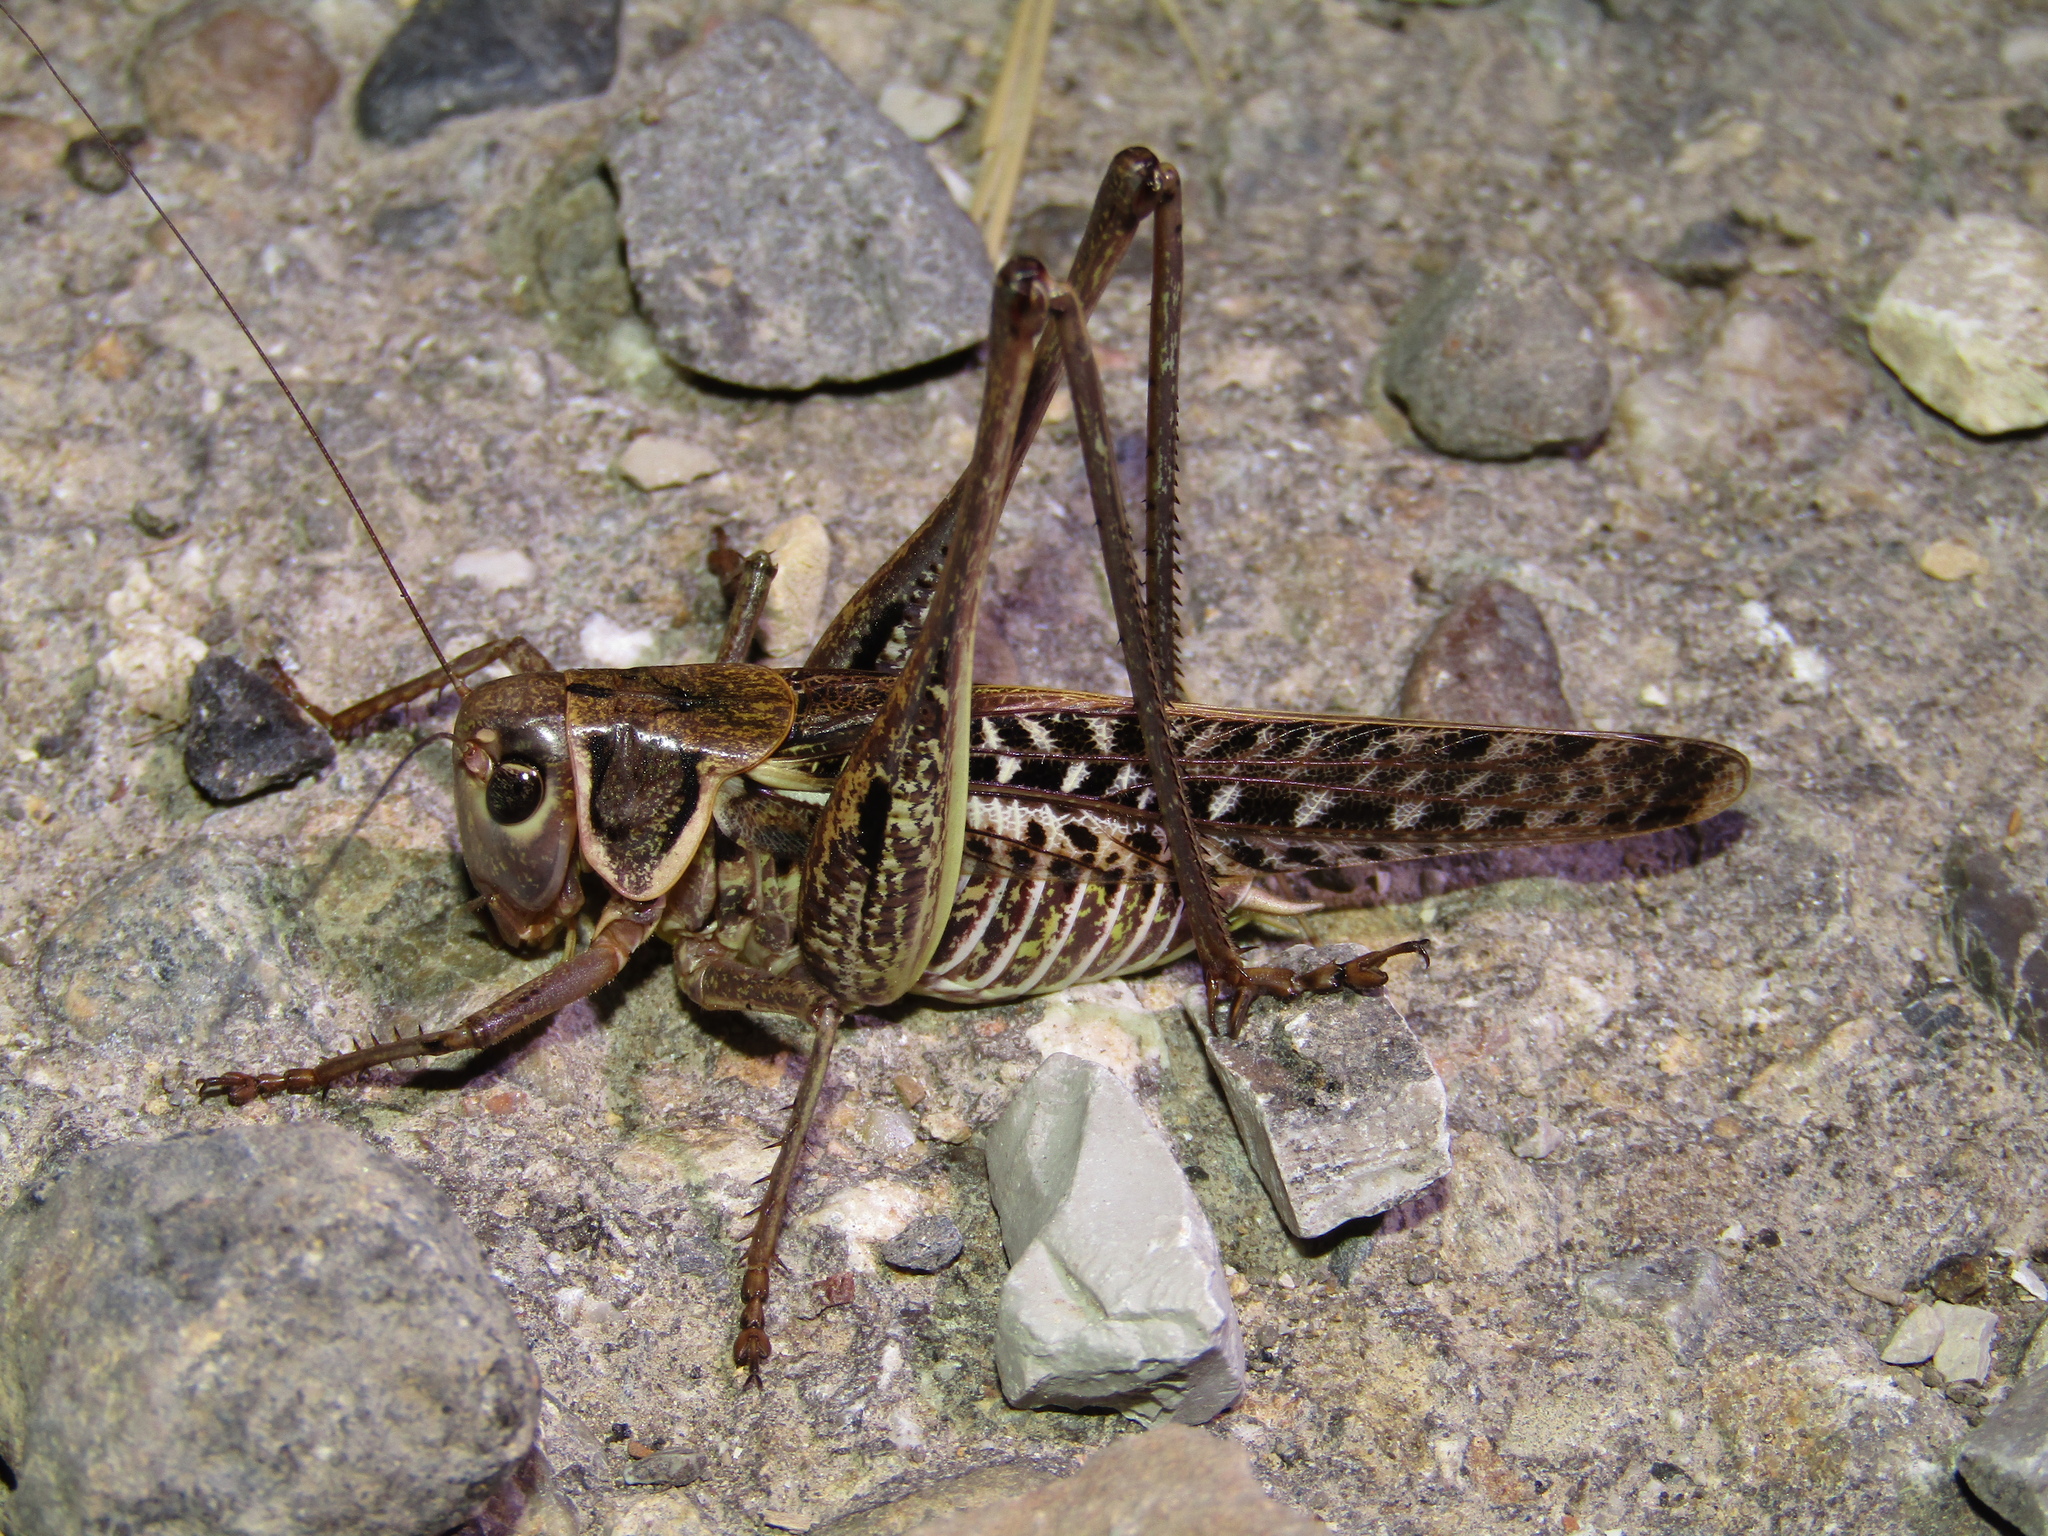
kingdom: Animalia
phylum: Arthropoda
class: Insecta
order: Orthoptera
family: Tettigoniidae
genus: Decticus
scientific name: Decticus albifrons
